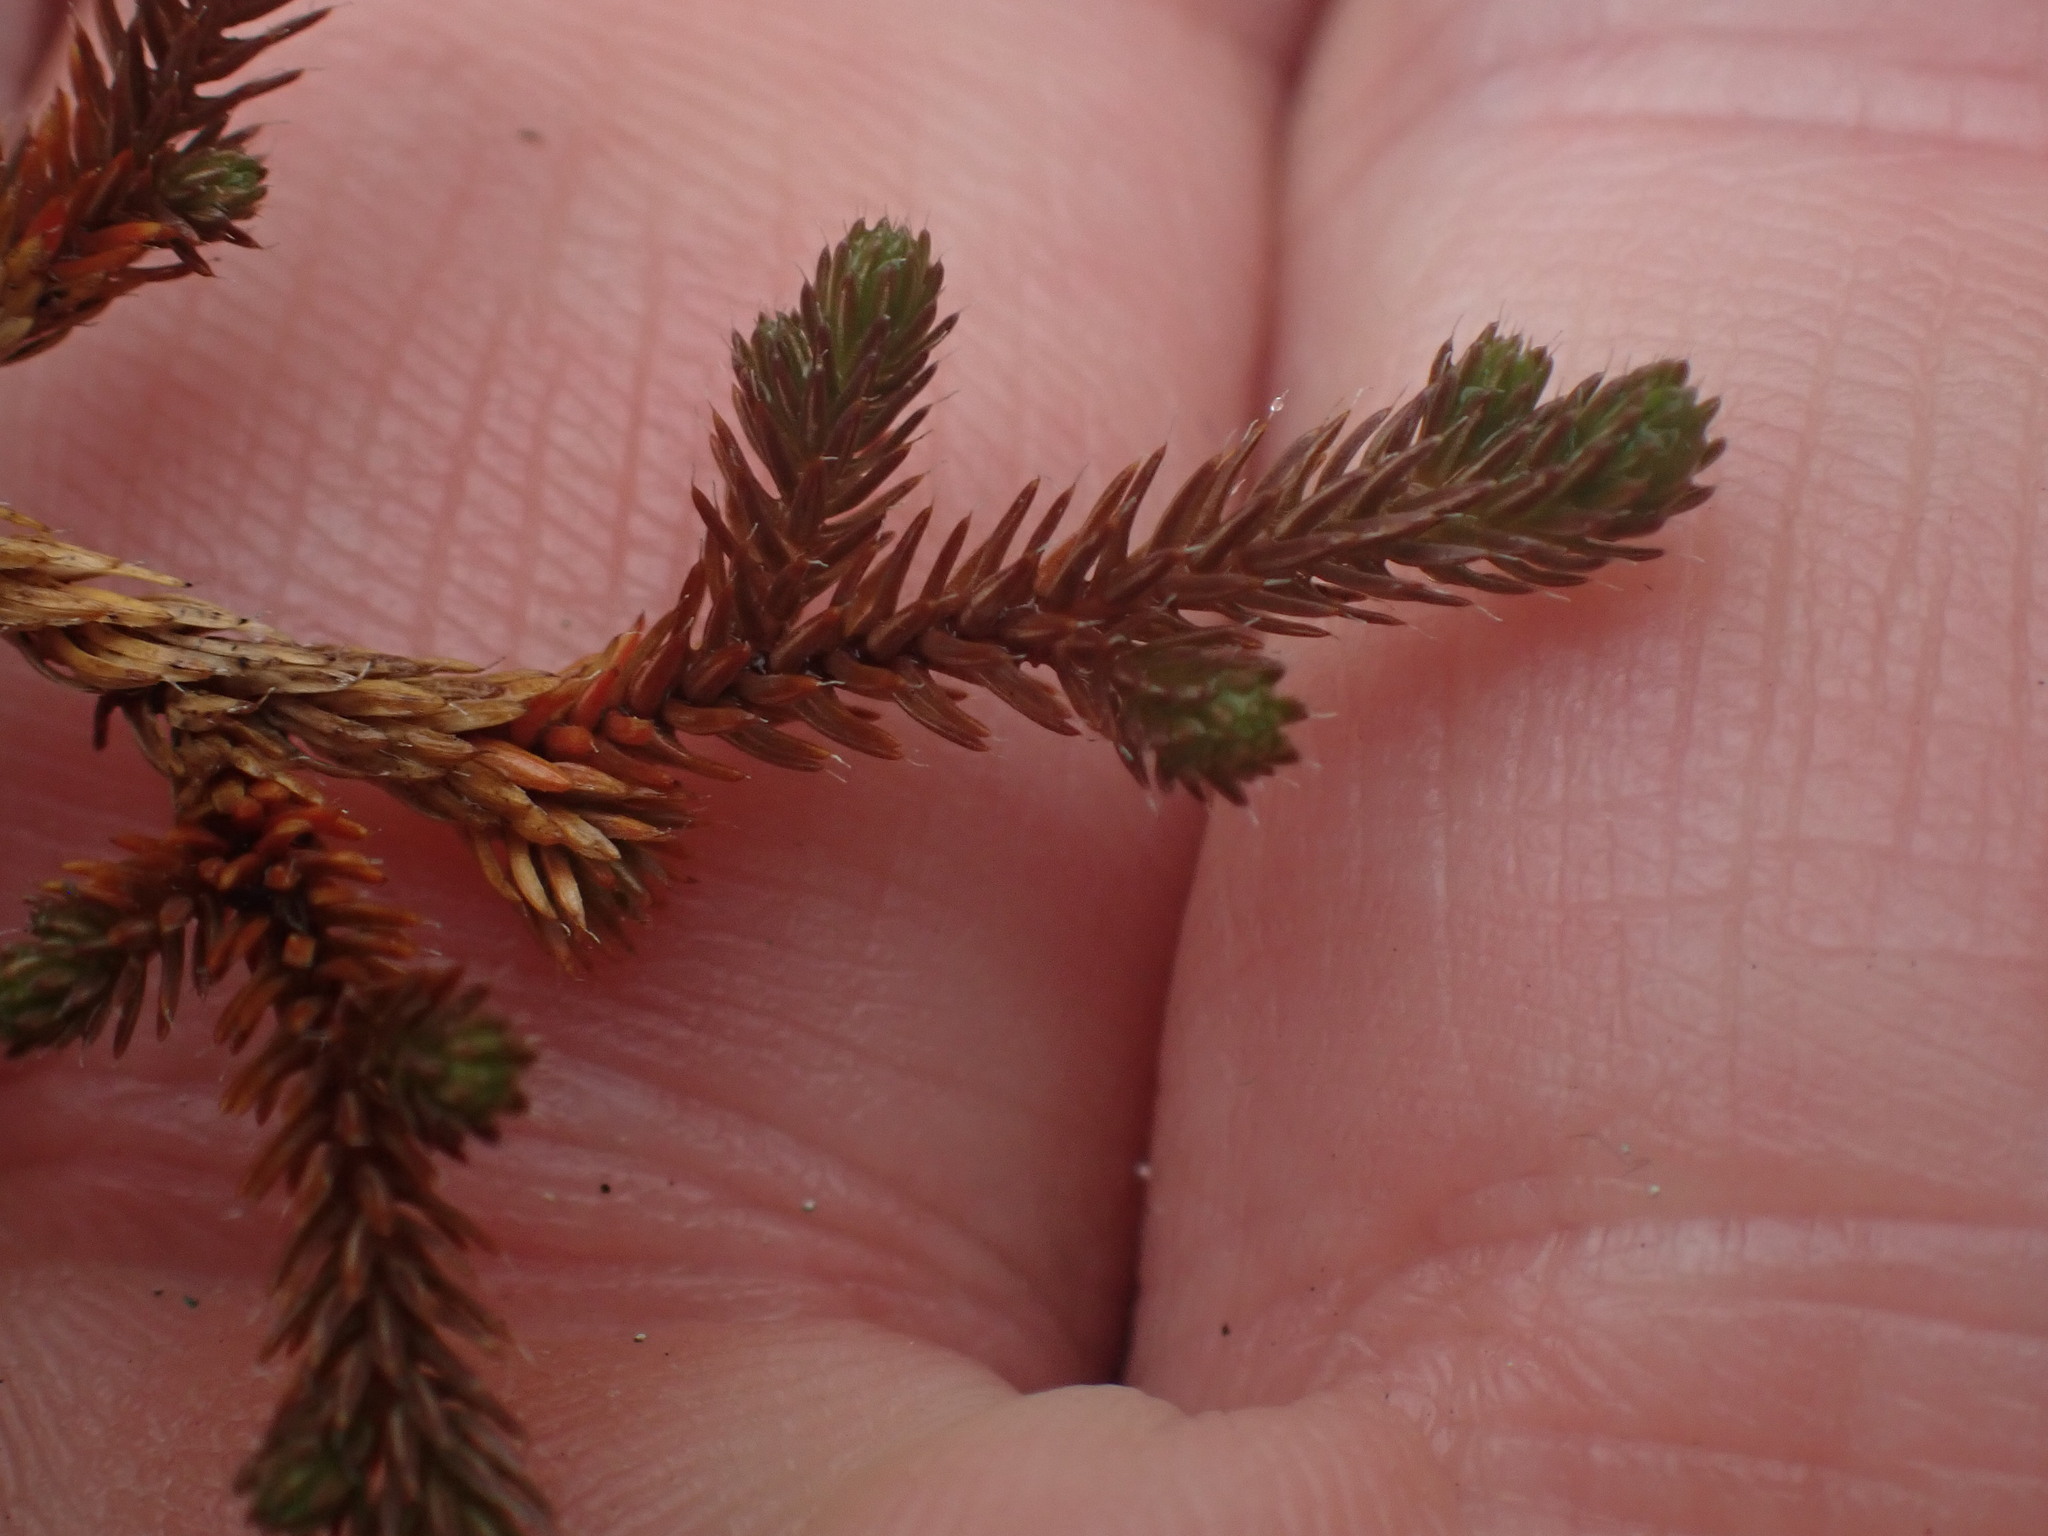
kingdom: Plantae
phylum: Tracheophyta
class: Lycopodiopsida
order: Selaginellales
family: Selaginellaceae
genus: Selaginella
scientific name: Selaginella wallacei
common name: Wallace's selaginella
